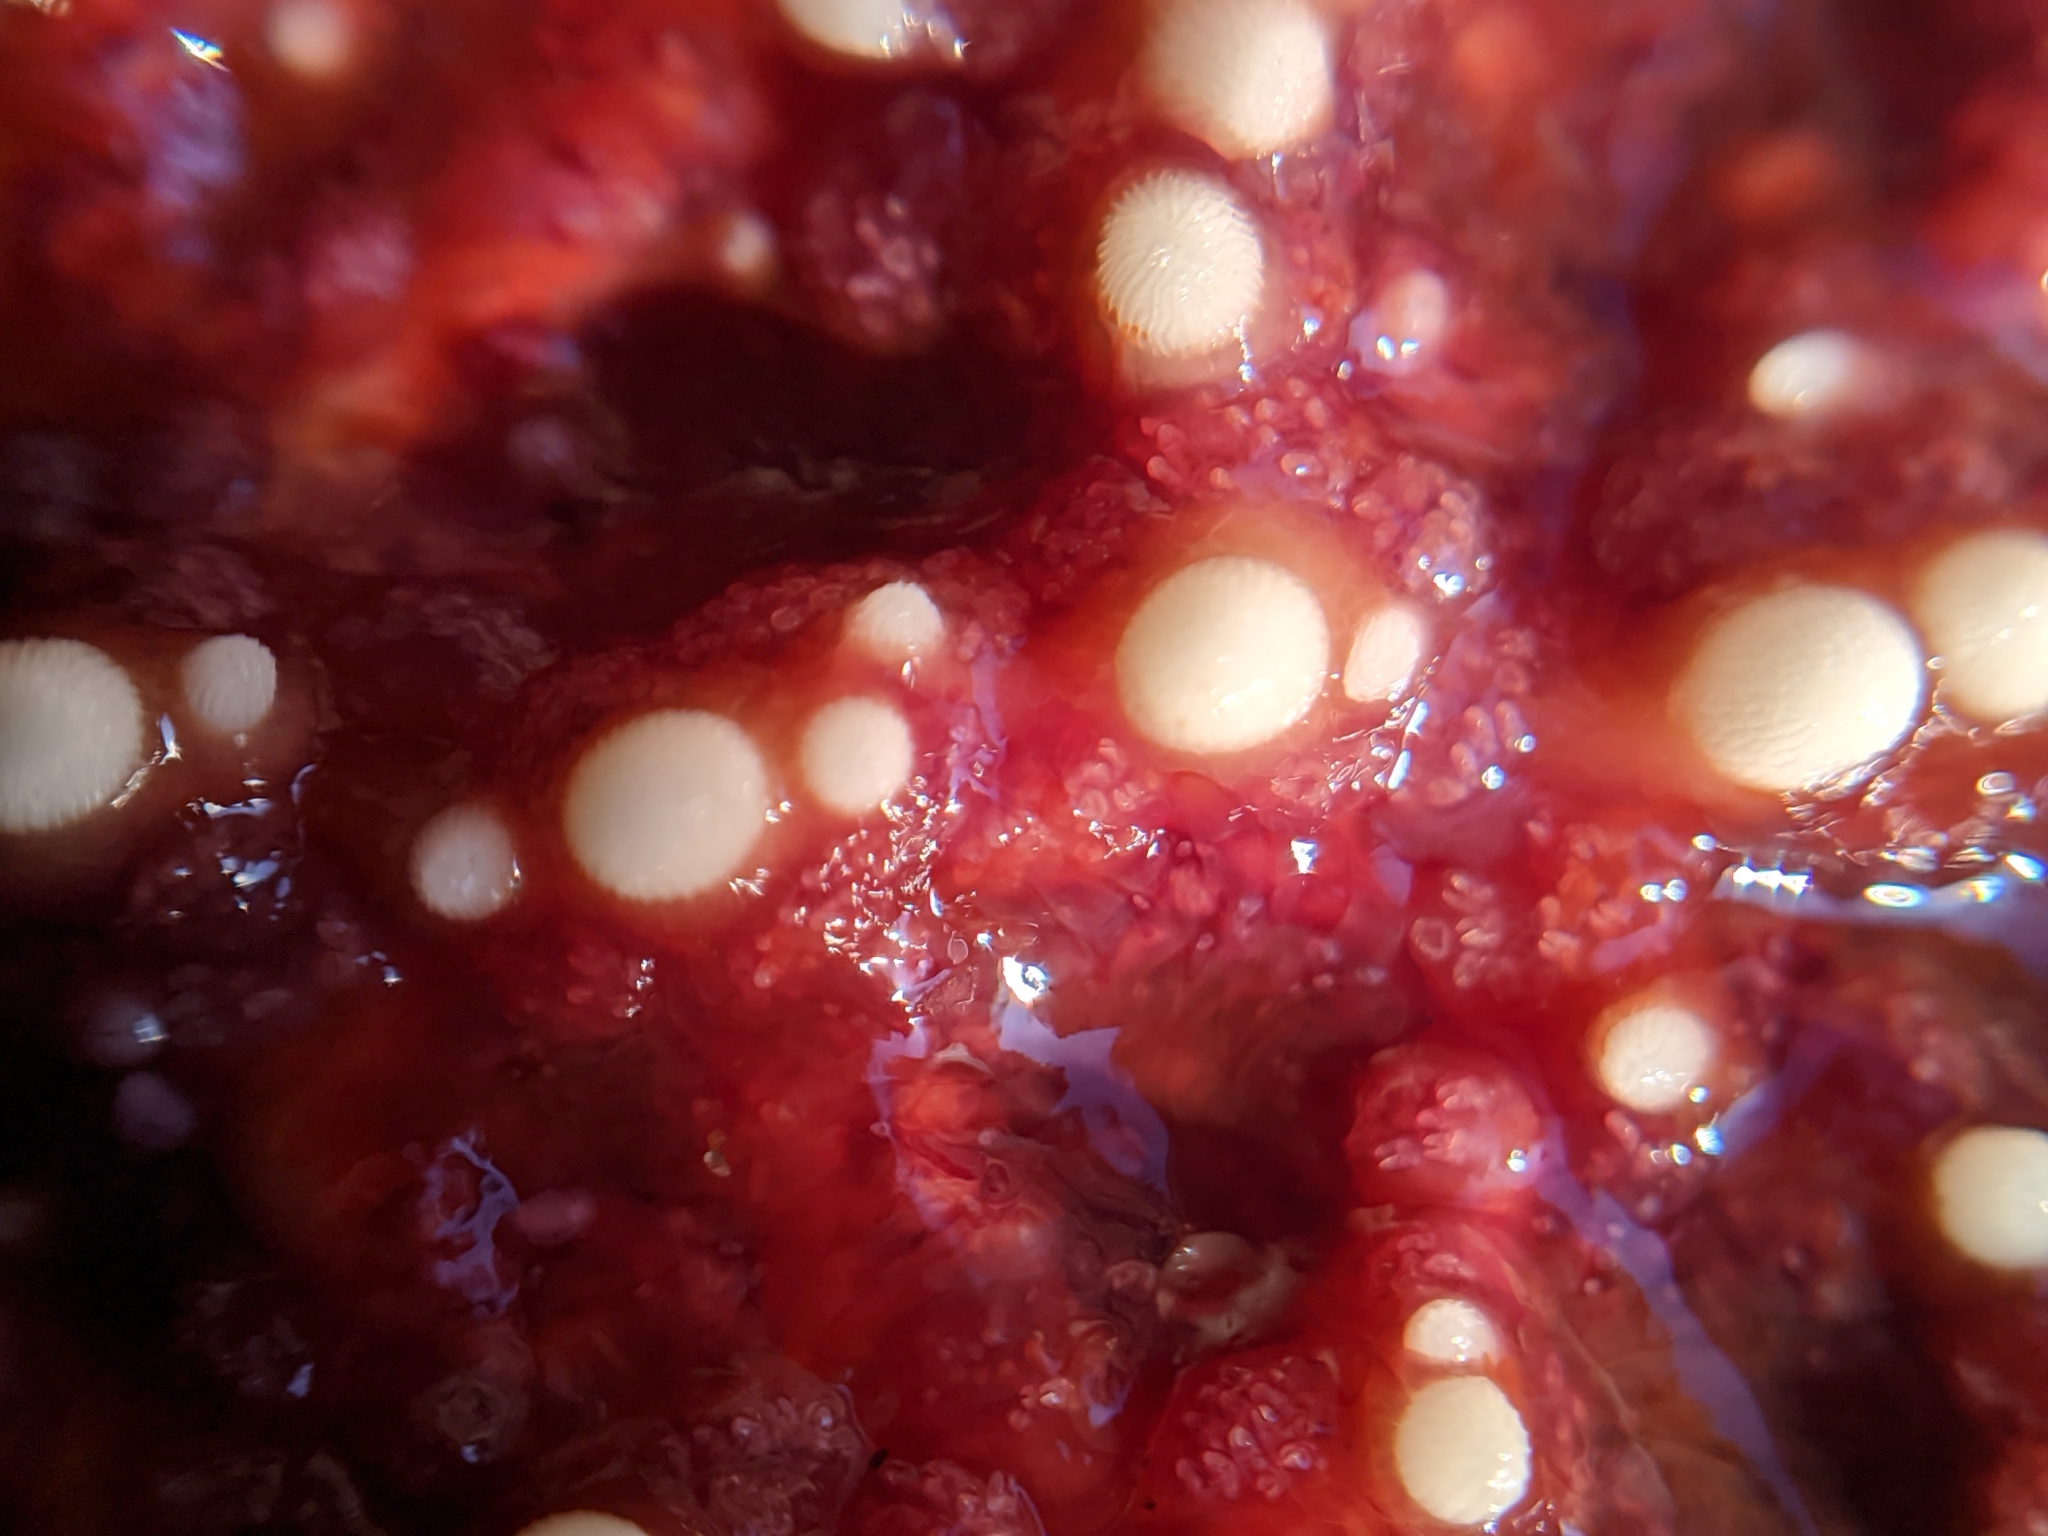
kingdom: Animalia
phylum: Echinodermata
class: Asteroidea
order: Forcipulatida
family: Asteriidae
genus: Pisaster
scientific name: Pisaster ochraceus
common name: Ochre stars
